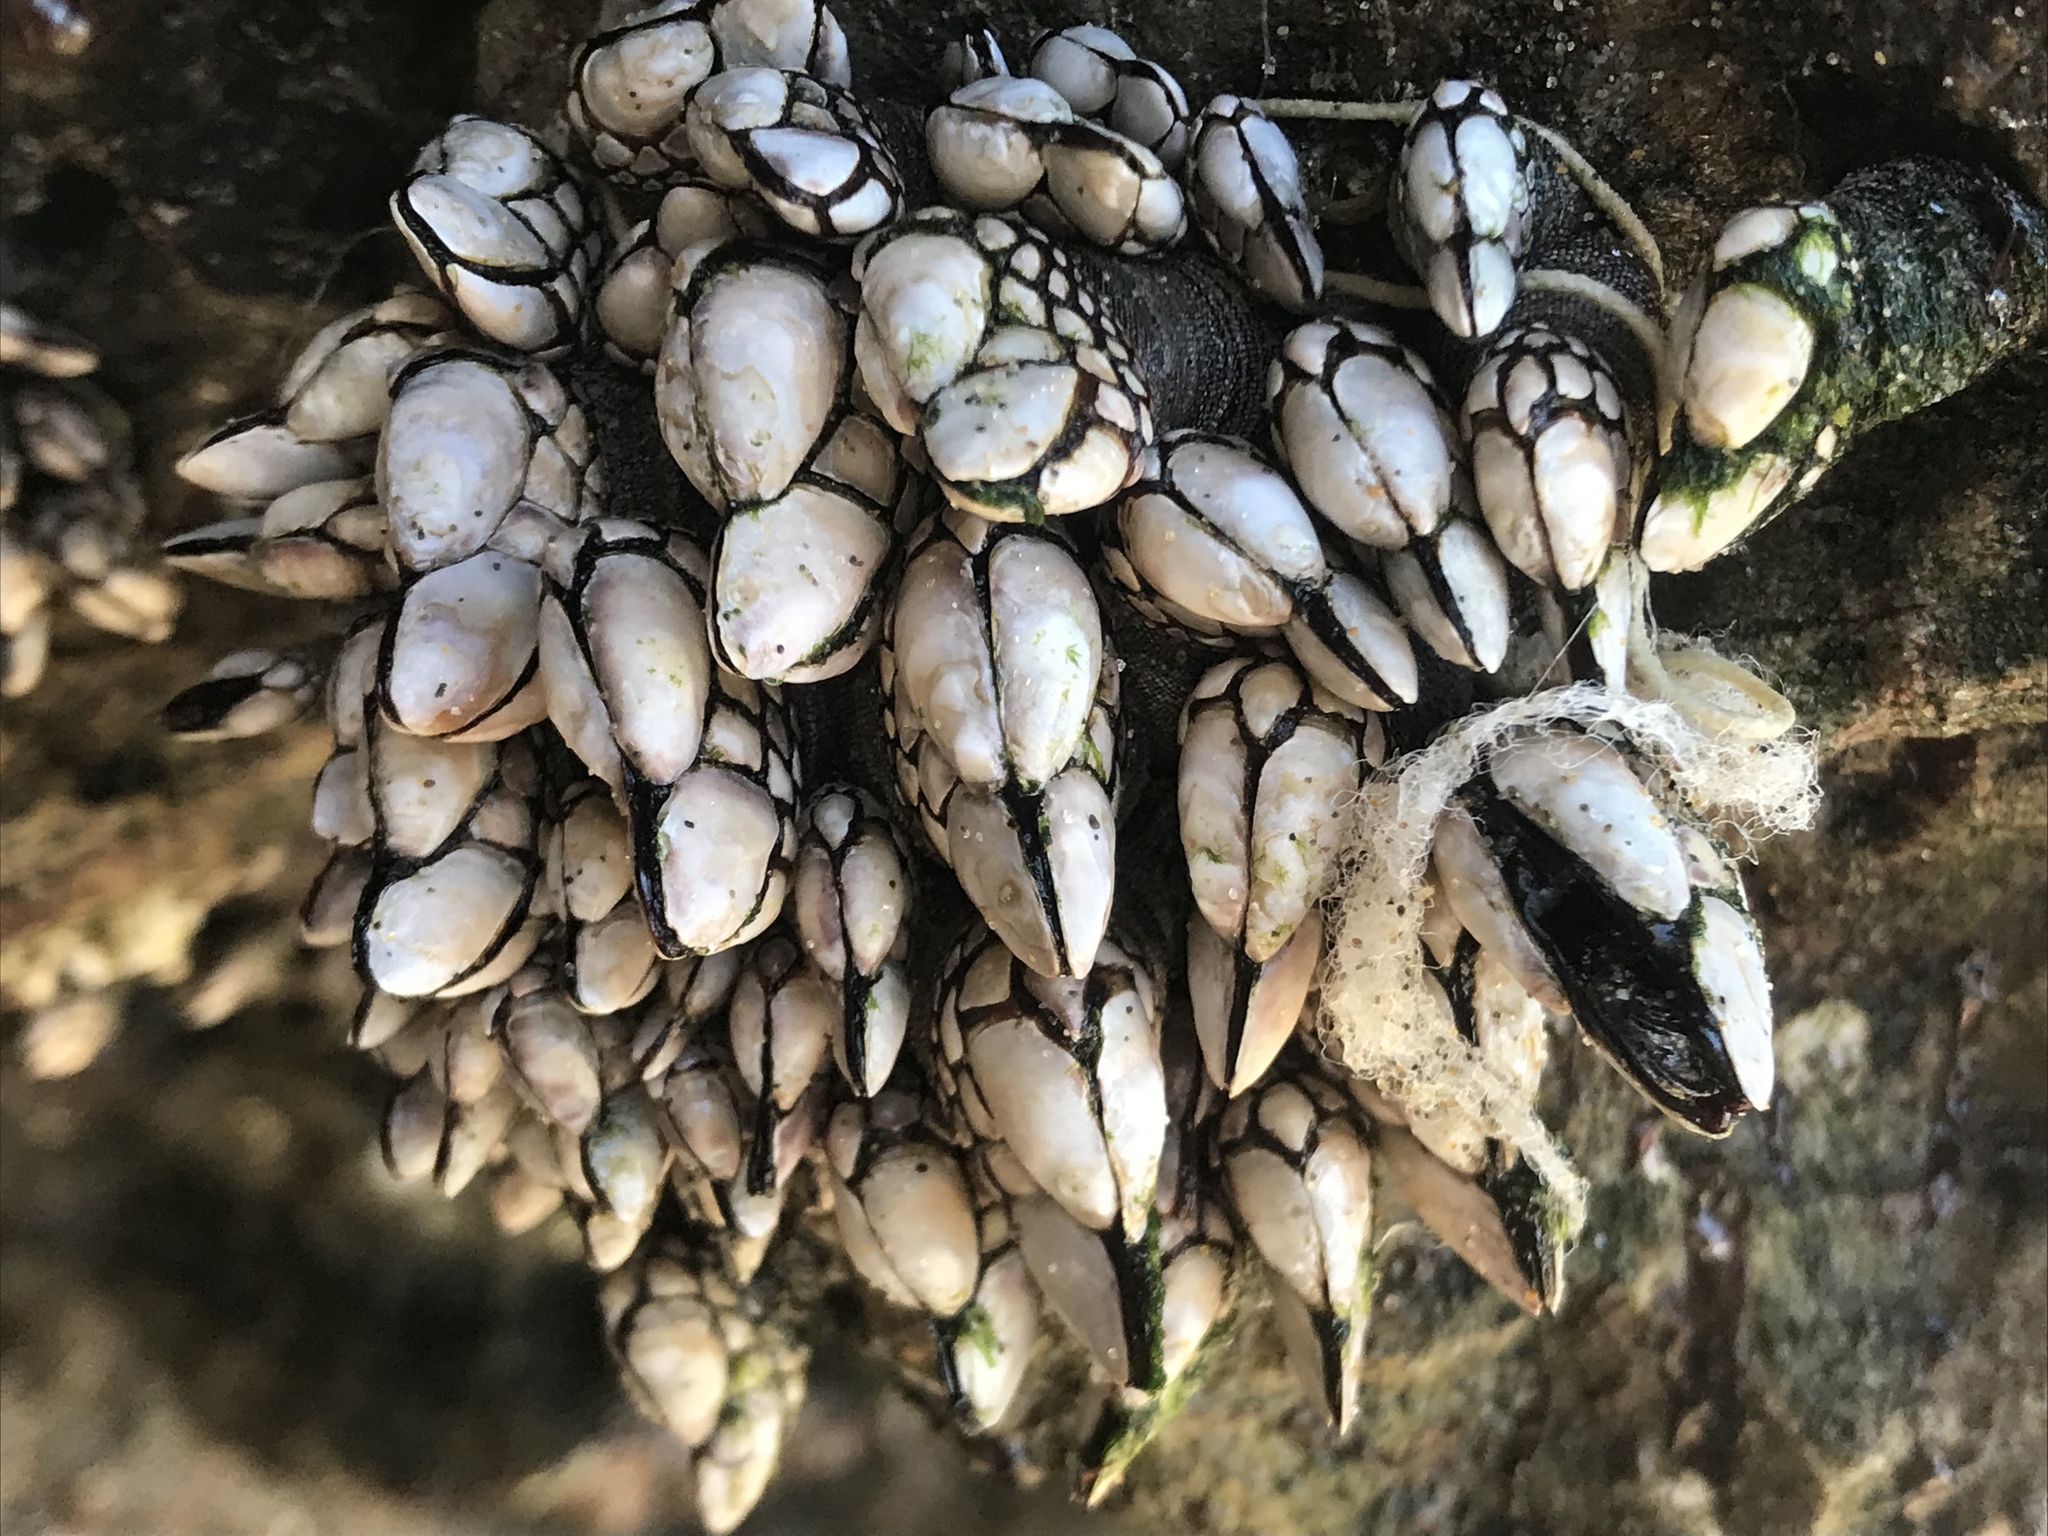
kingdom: Animalia
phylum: Arthropoda
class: Maxillopoda
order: Pedunculata
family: Pollicipedidae
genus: Pollicipes
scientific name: Pollicipes polymerus
